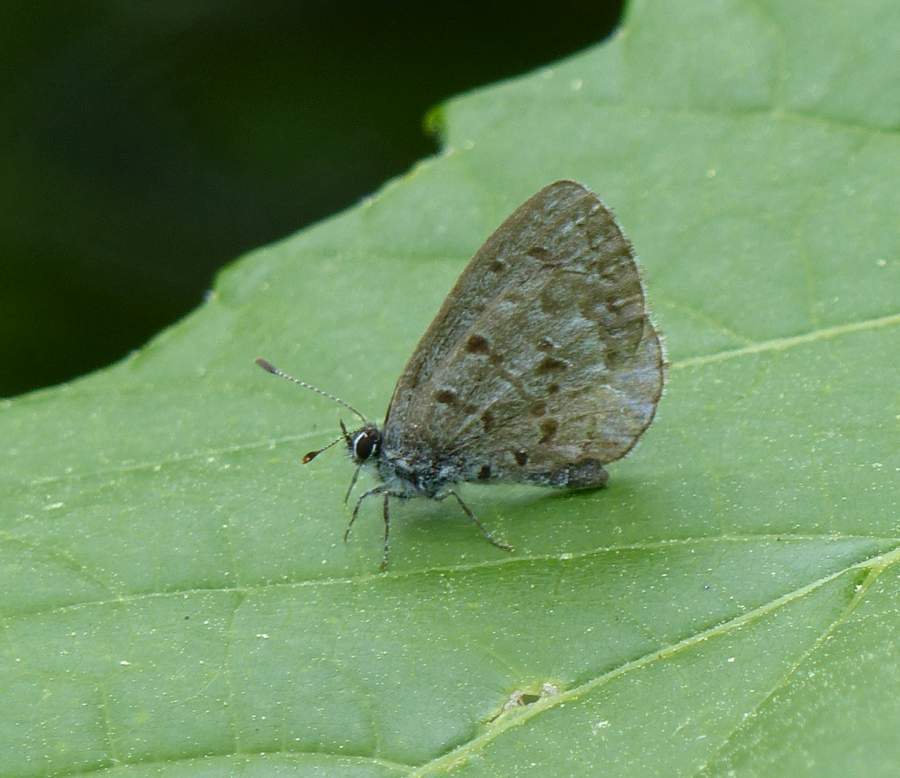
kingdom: Animalia
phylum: Arthropoda
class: Insecta
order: Lepidoptera
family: Lycaenidae
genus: Celastrina
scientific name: Celastrina lucia
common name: Lucia azure
